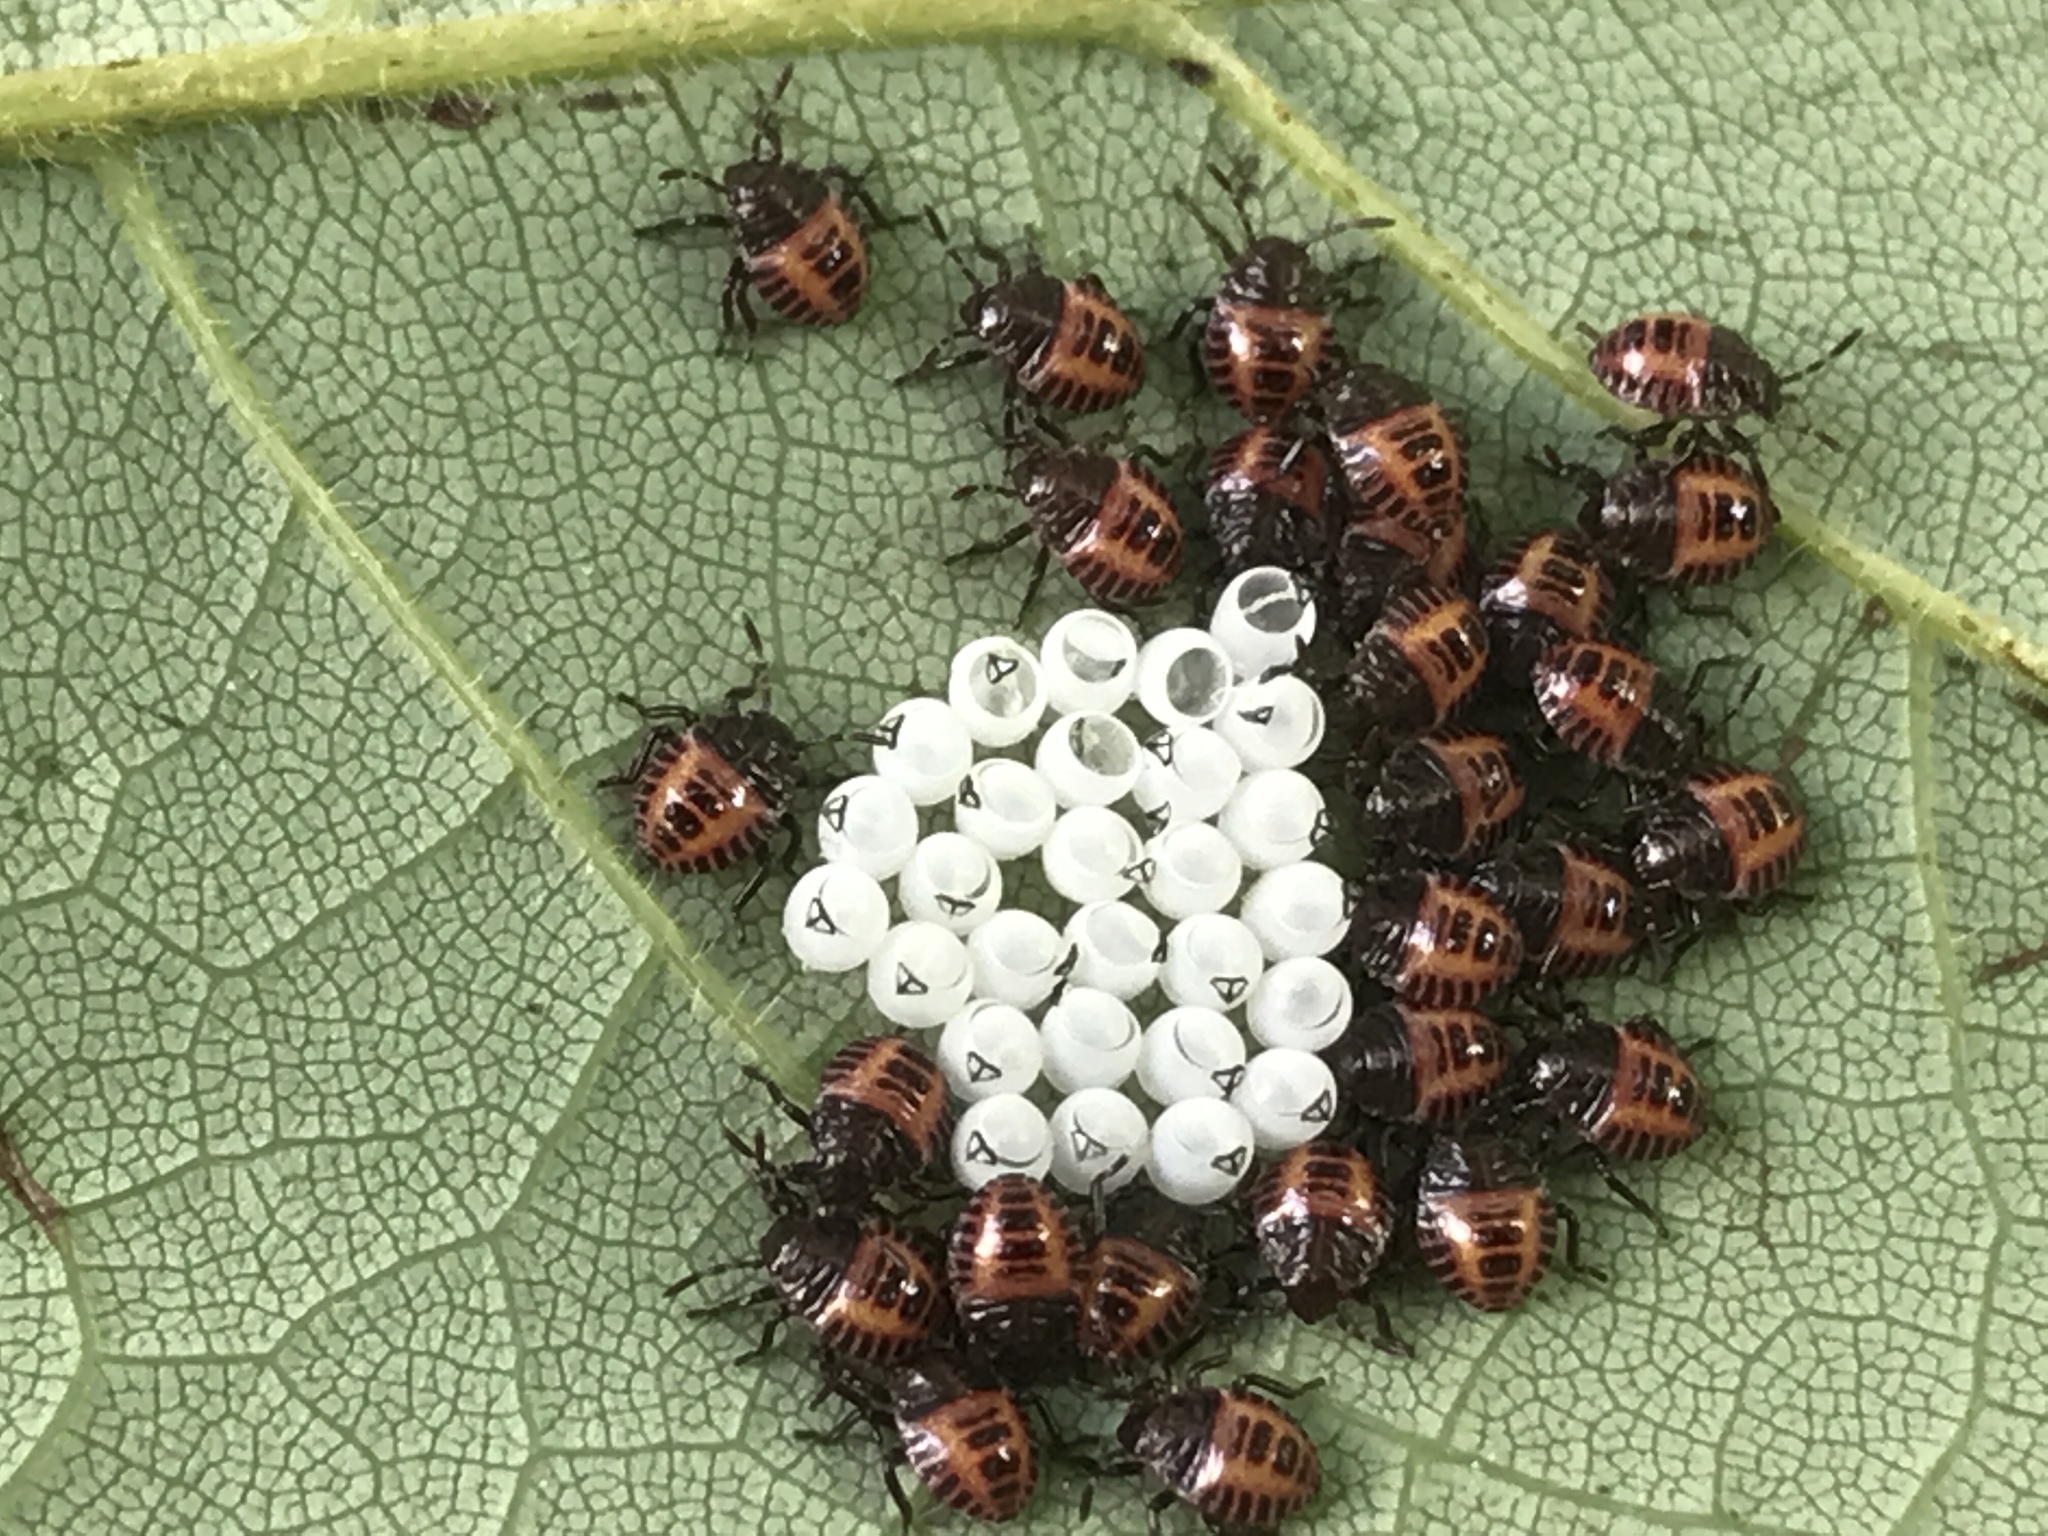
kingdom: Animalia
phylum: Arthropoda
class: Insecta
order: Hemiptera
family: Pentatomidae
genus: Halyomorpha
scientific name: Halyomorpha halys
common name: Brown marmorated stink bug
